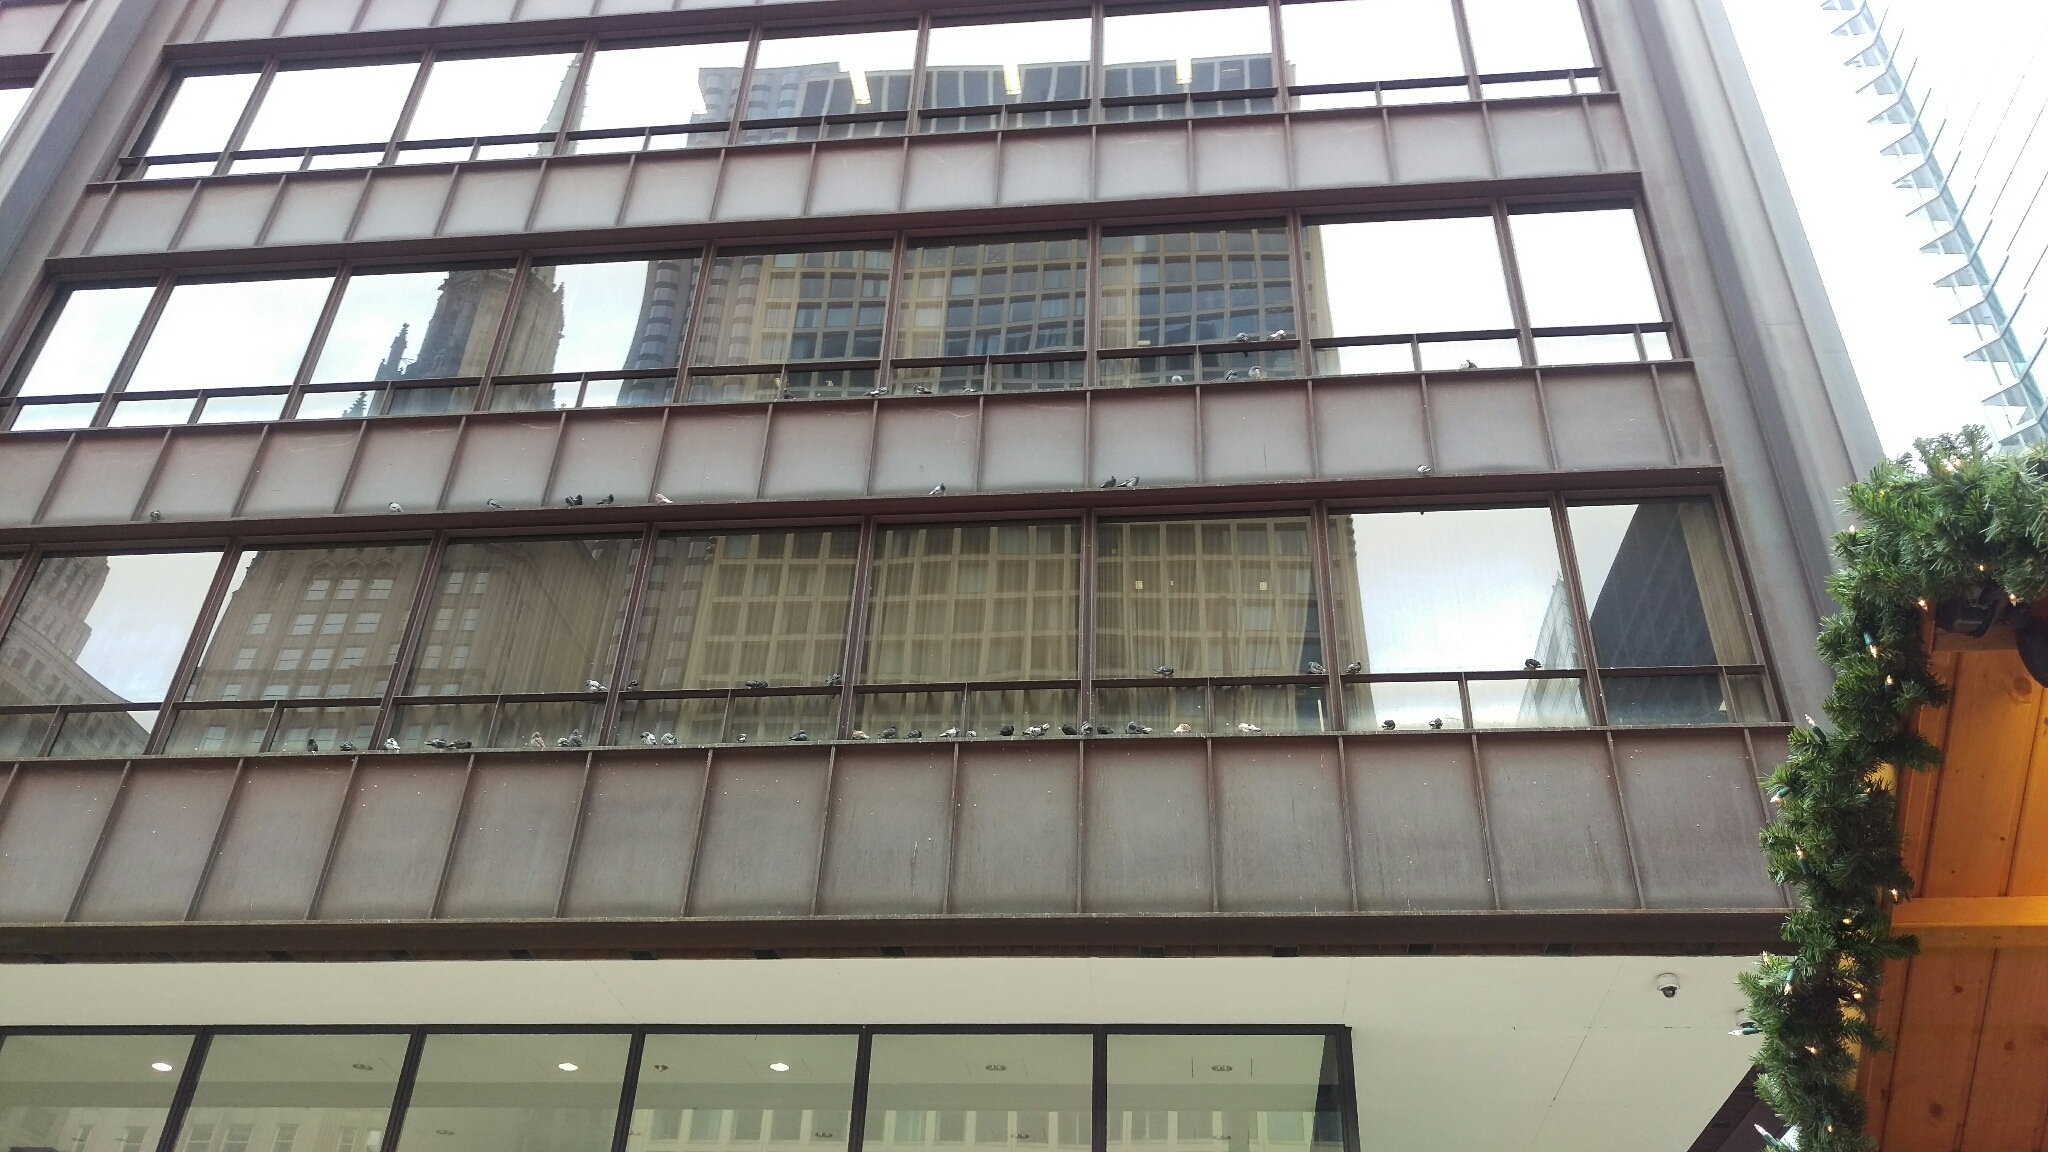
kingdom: Animalia
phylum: Chordata
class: Aves
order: Columbiformes
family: Columbidae
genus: Columba
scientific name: Columba livia
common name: Rock pigeon
